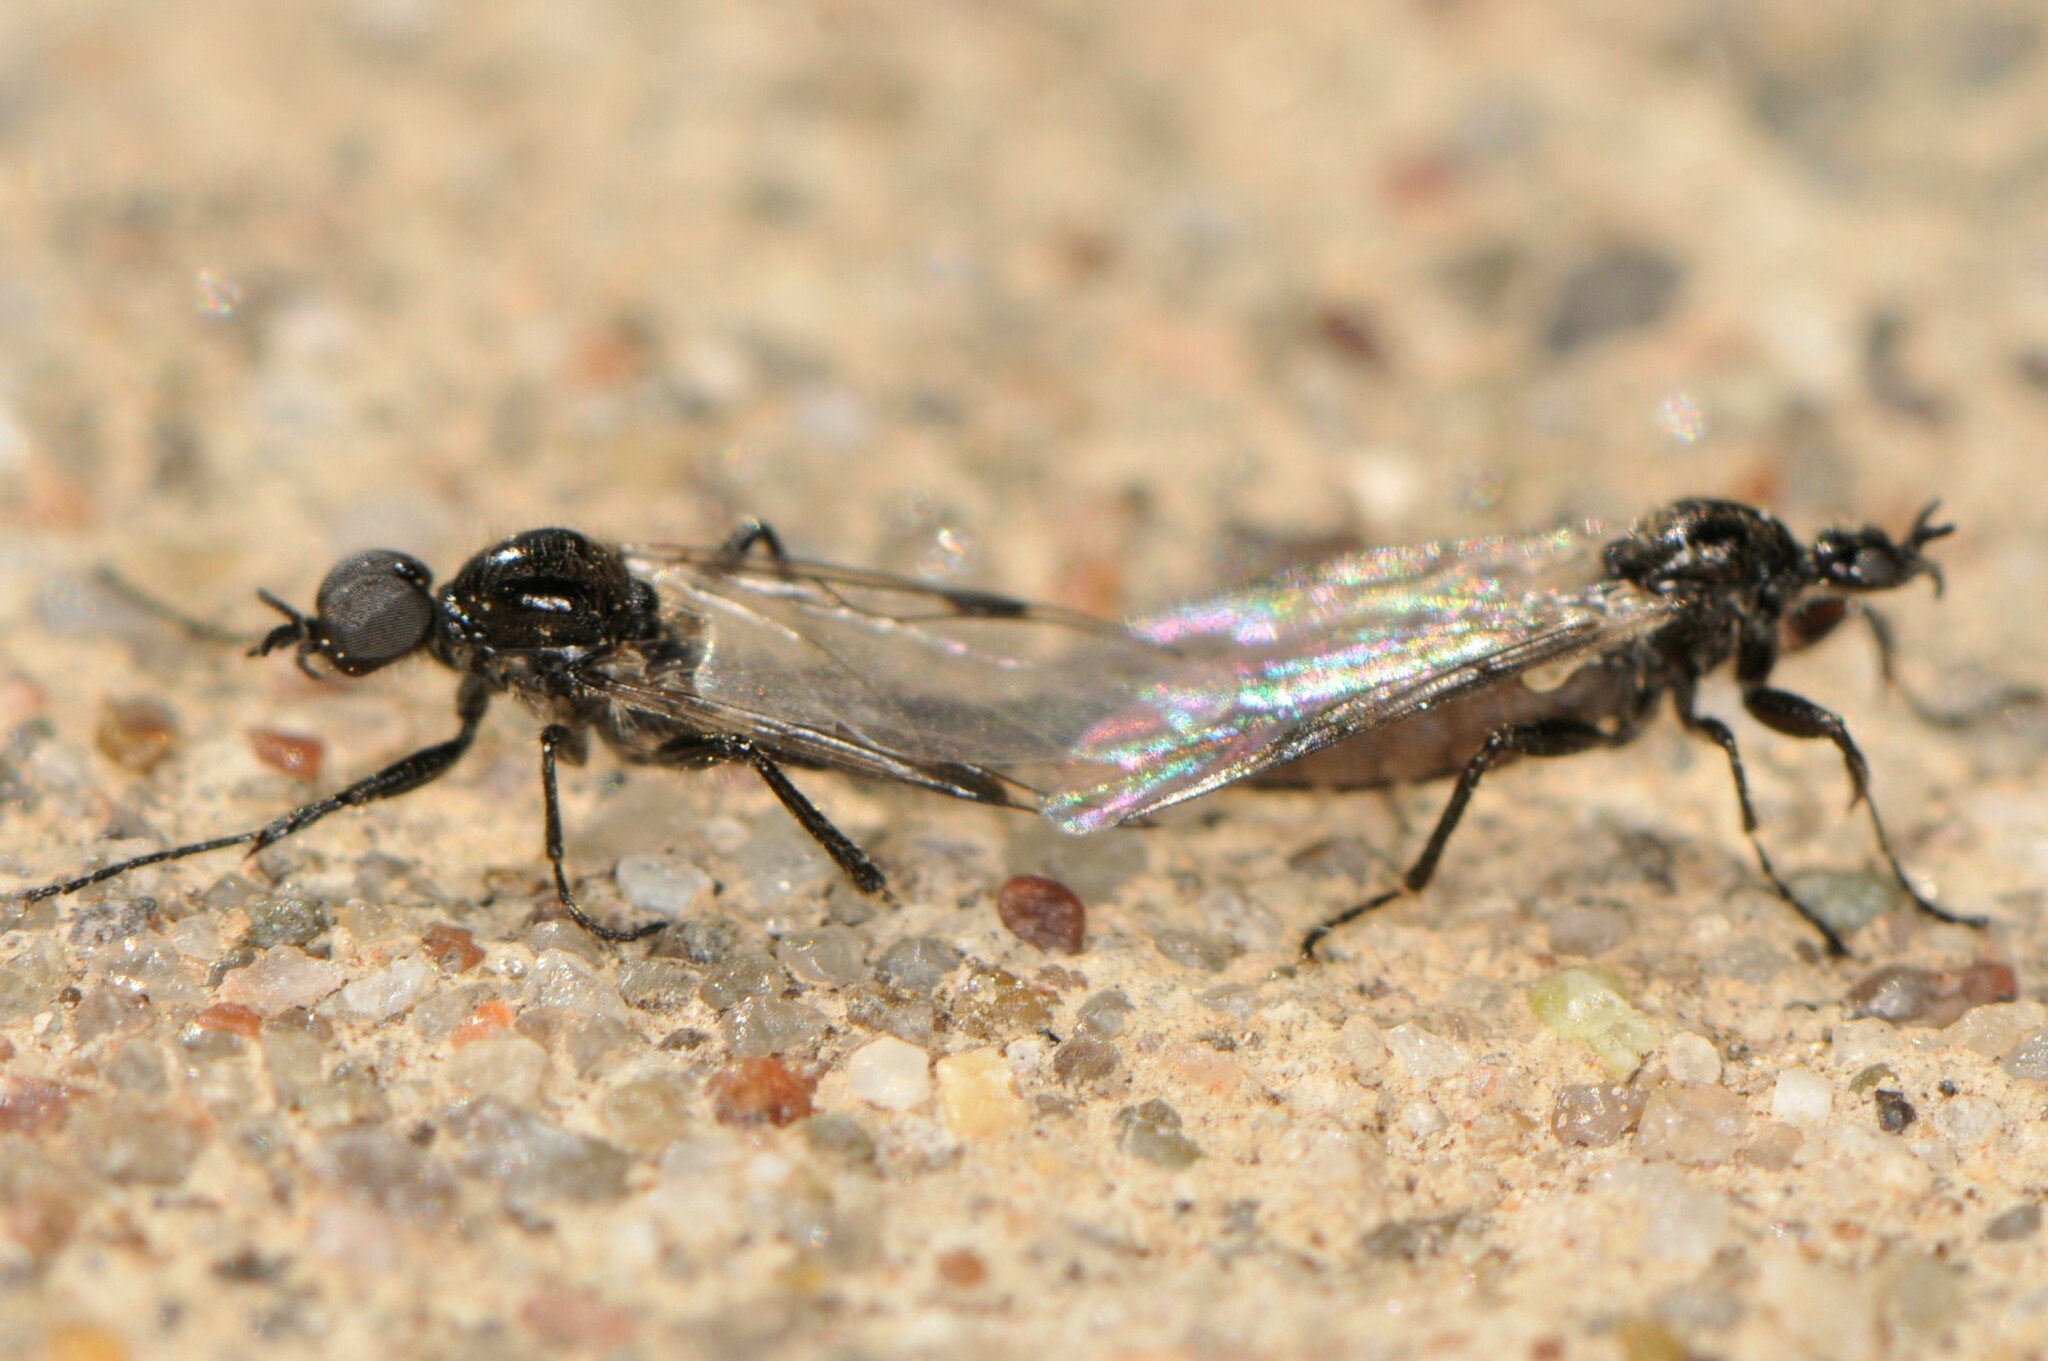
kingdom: Animalia
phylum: Arthropoda
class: Insecta
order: Diptera
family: Bibionidae
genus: Bibiodes
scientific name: Bibiodes halteralis
